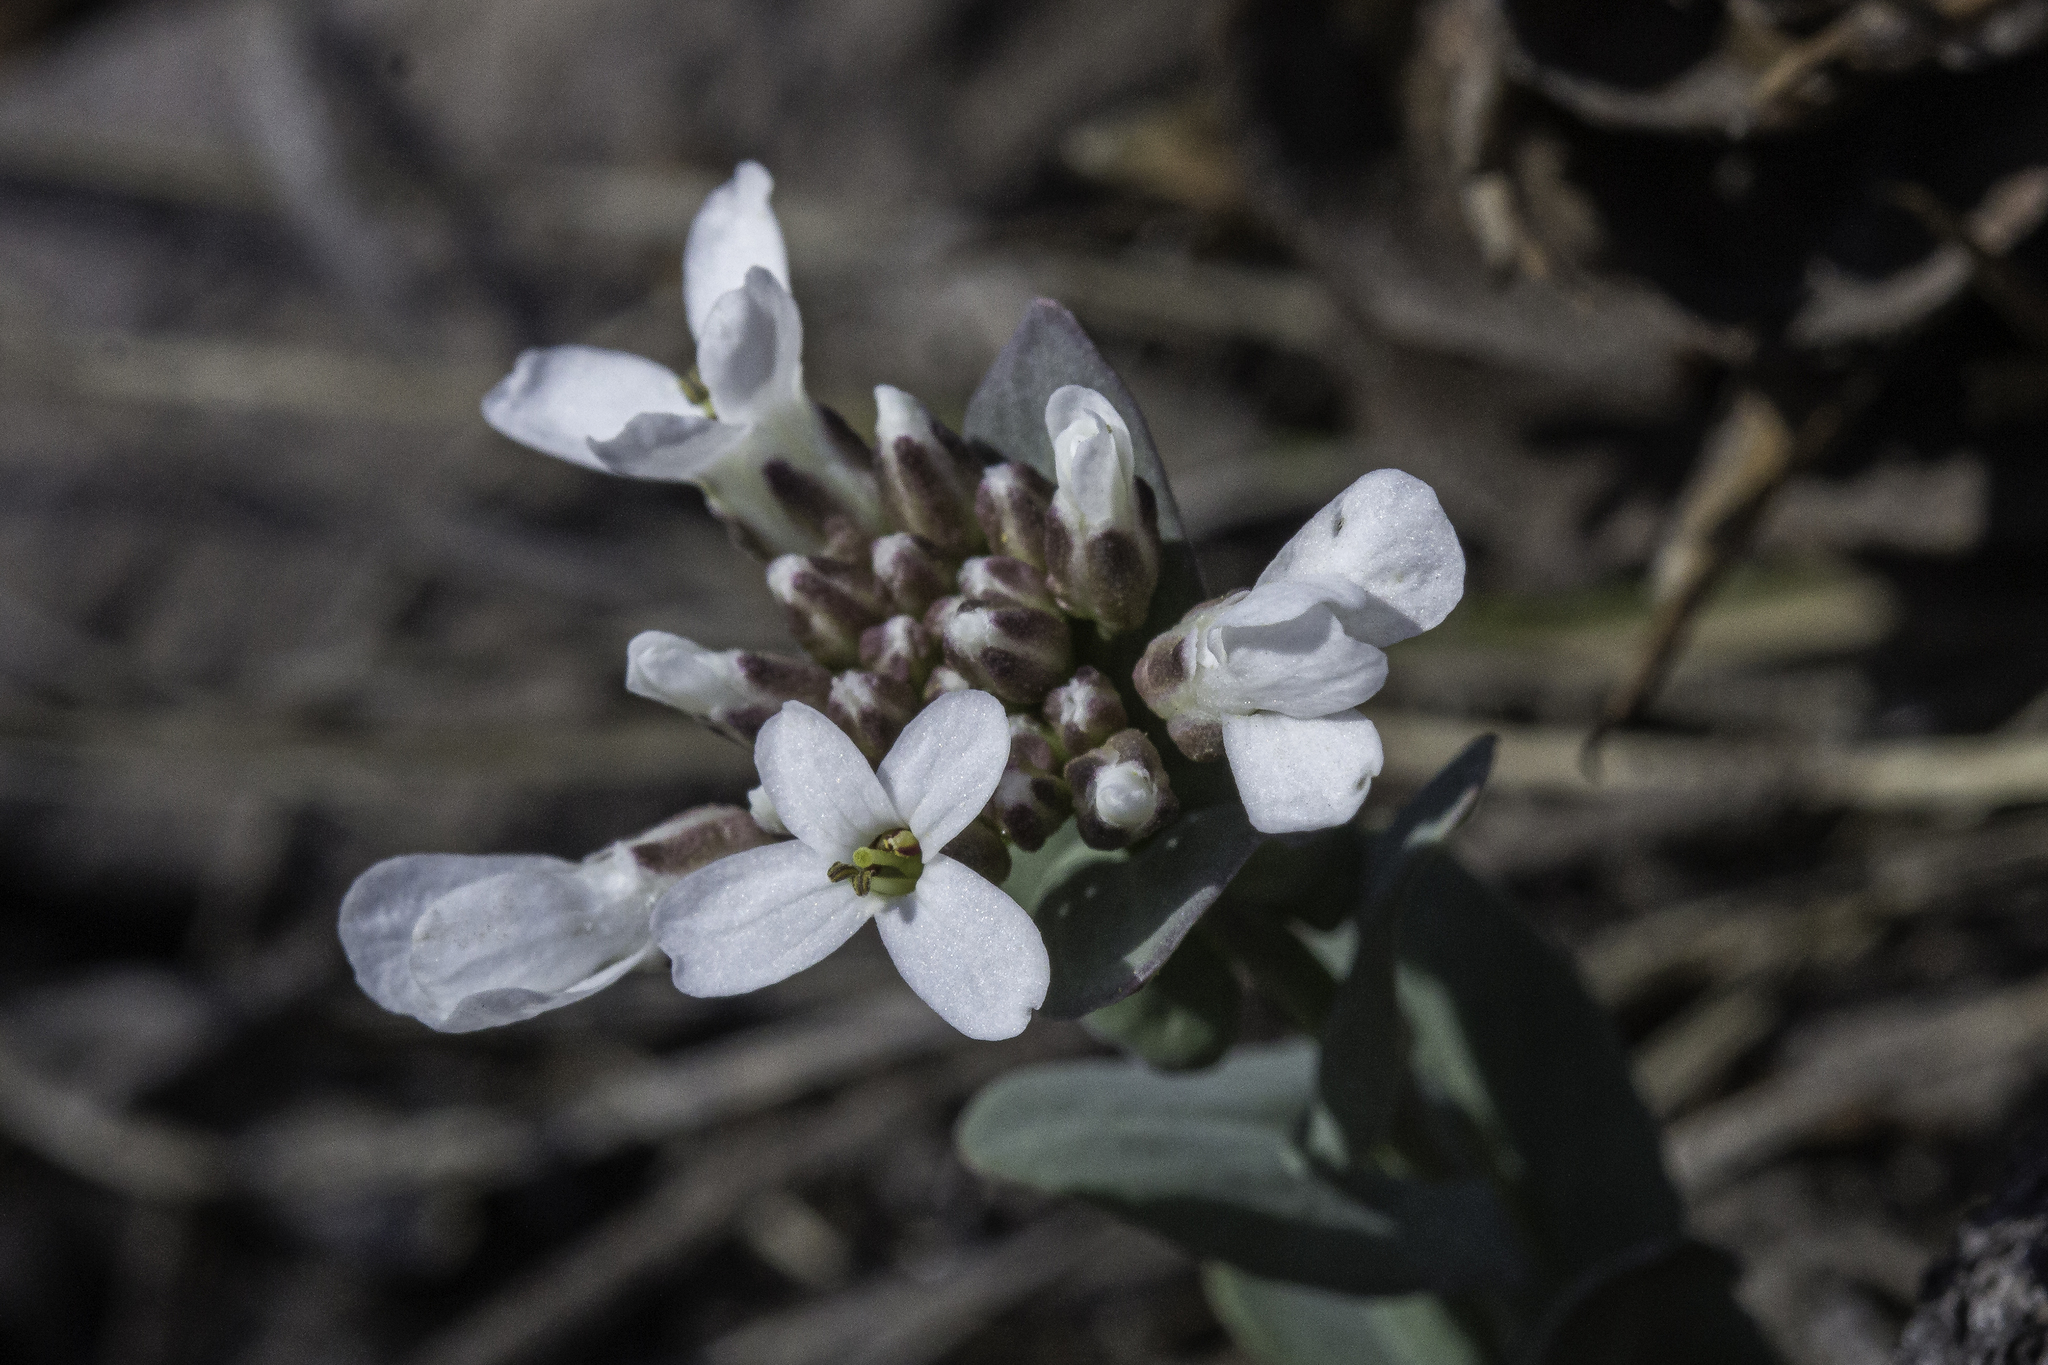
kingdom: Plantae
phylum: Tracheophyta
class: Magnoliopsida
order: Brassicales
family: Brassicaceae
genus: Noccaea
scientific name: Noccaea fendleri
